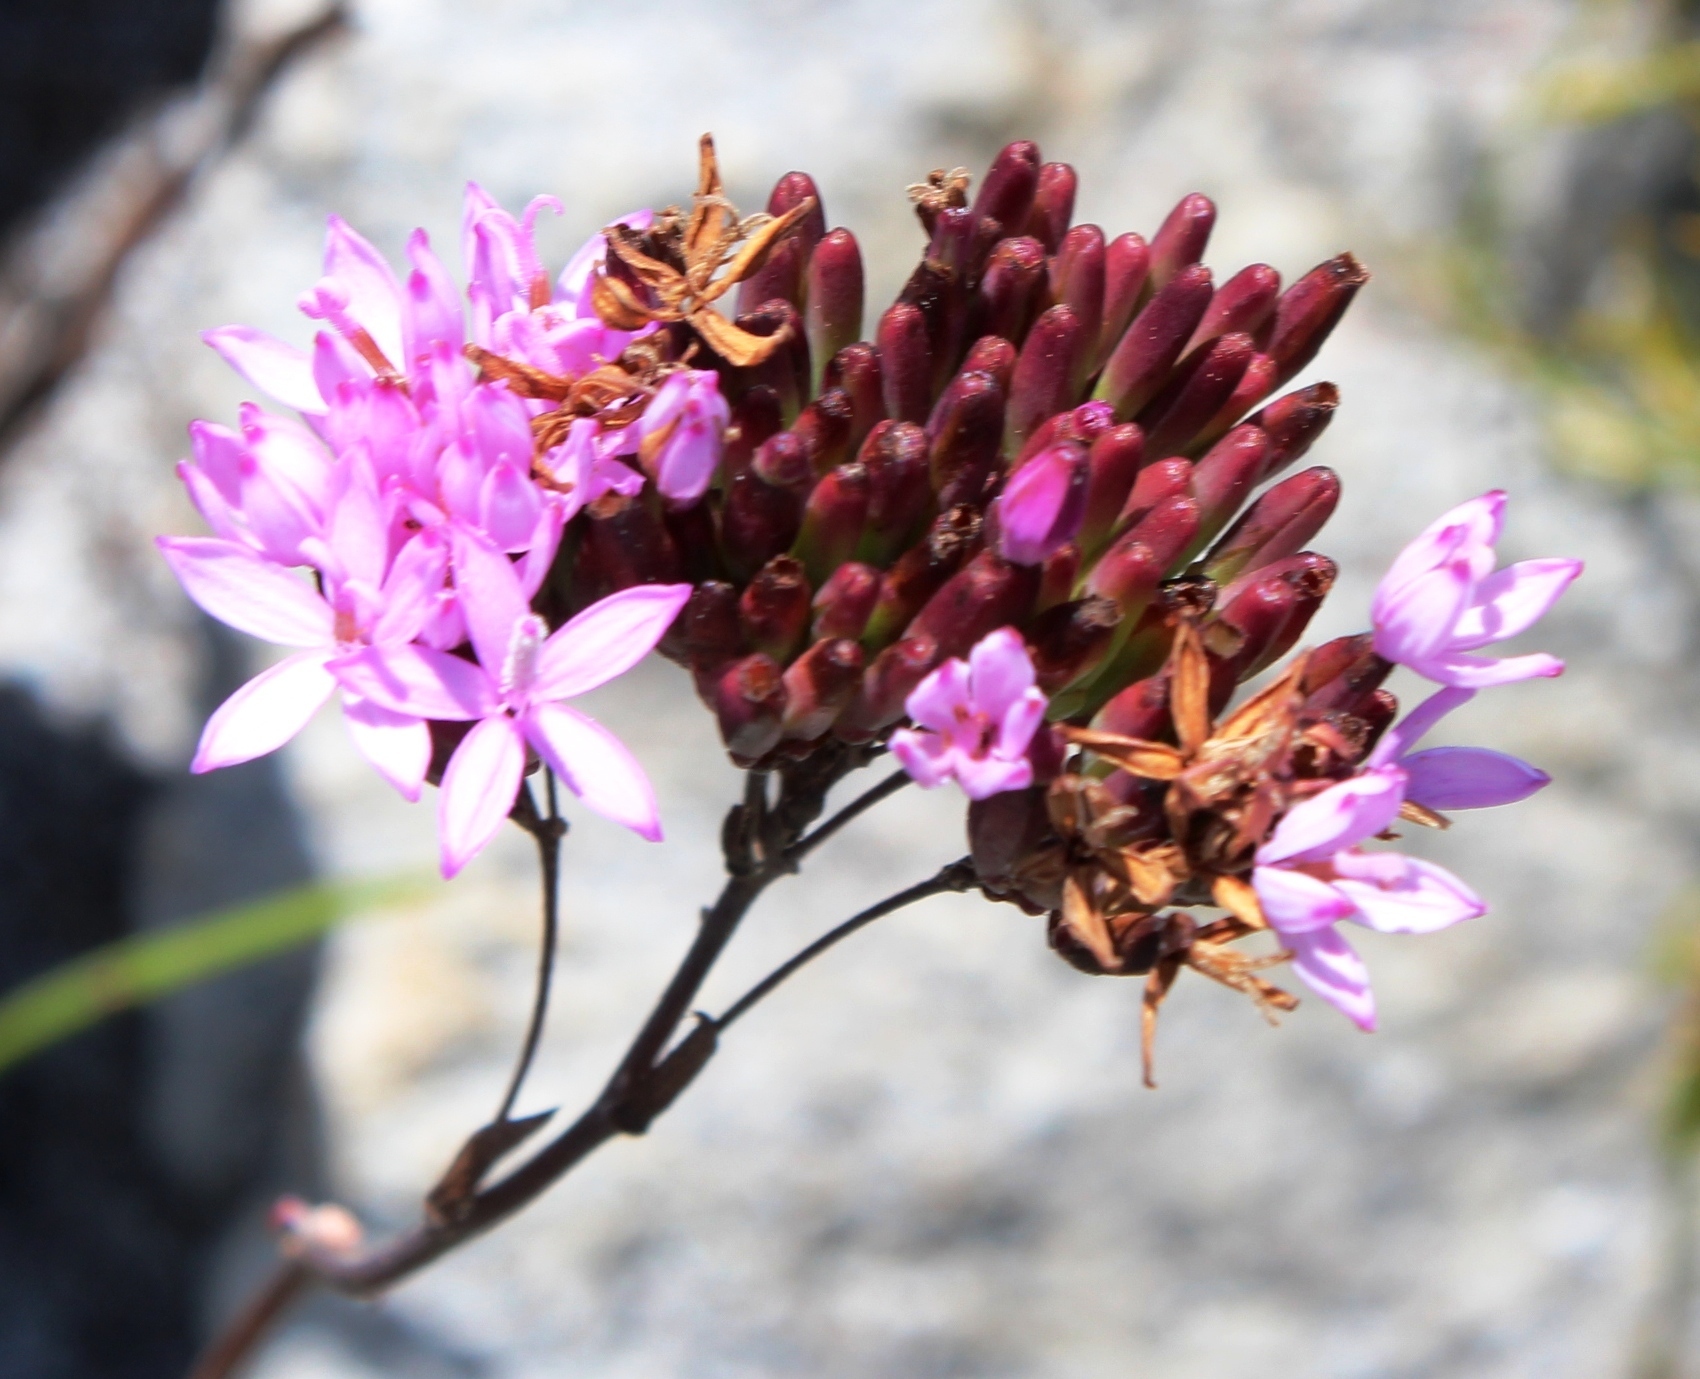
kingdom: Plantae
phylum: Tracheophyta
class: Magnoliopsida
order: Asterales
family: Asteraceae
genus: Corymbium
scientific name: Corymbium glabrum
